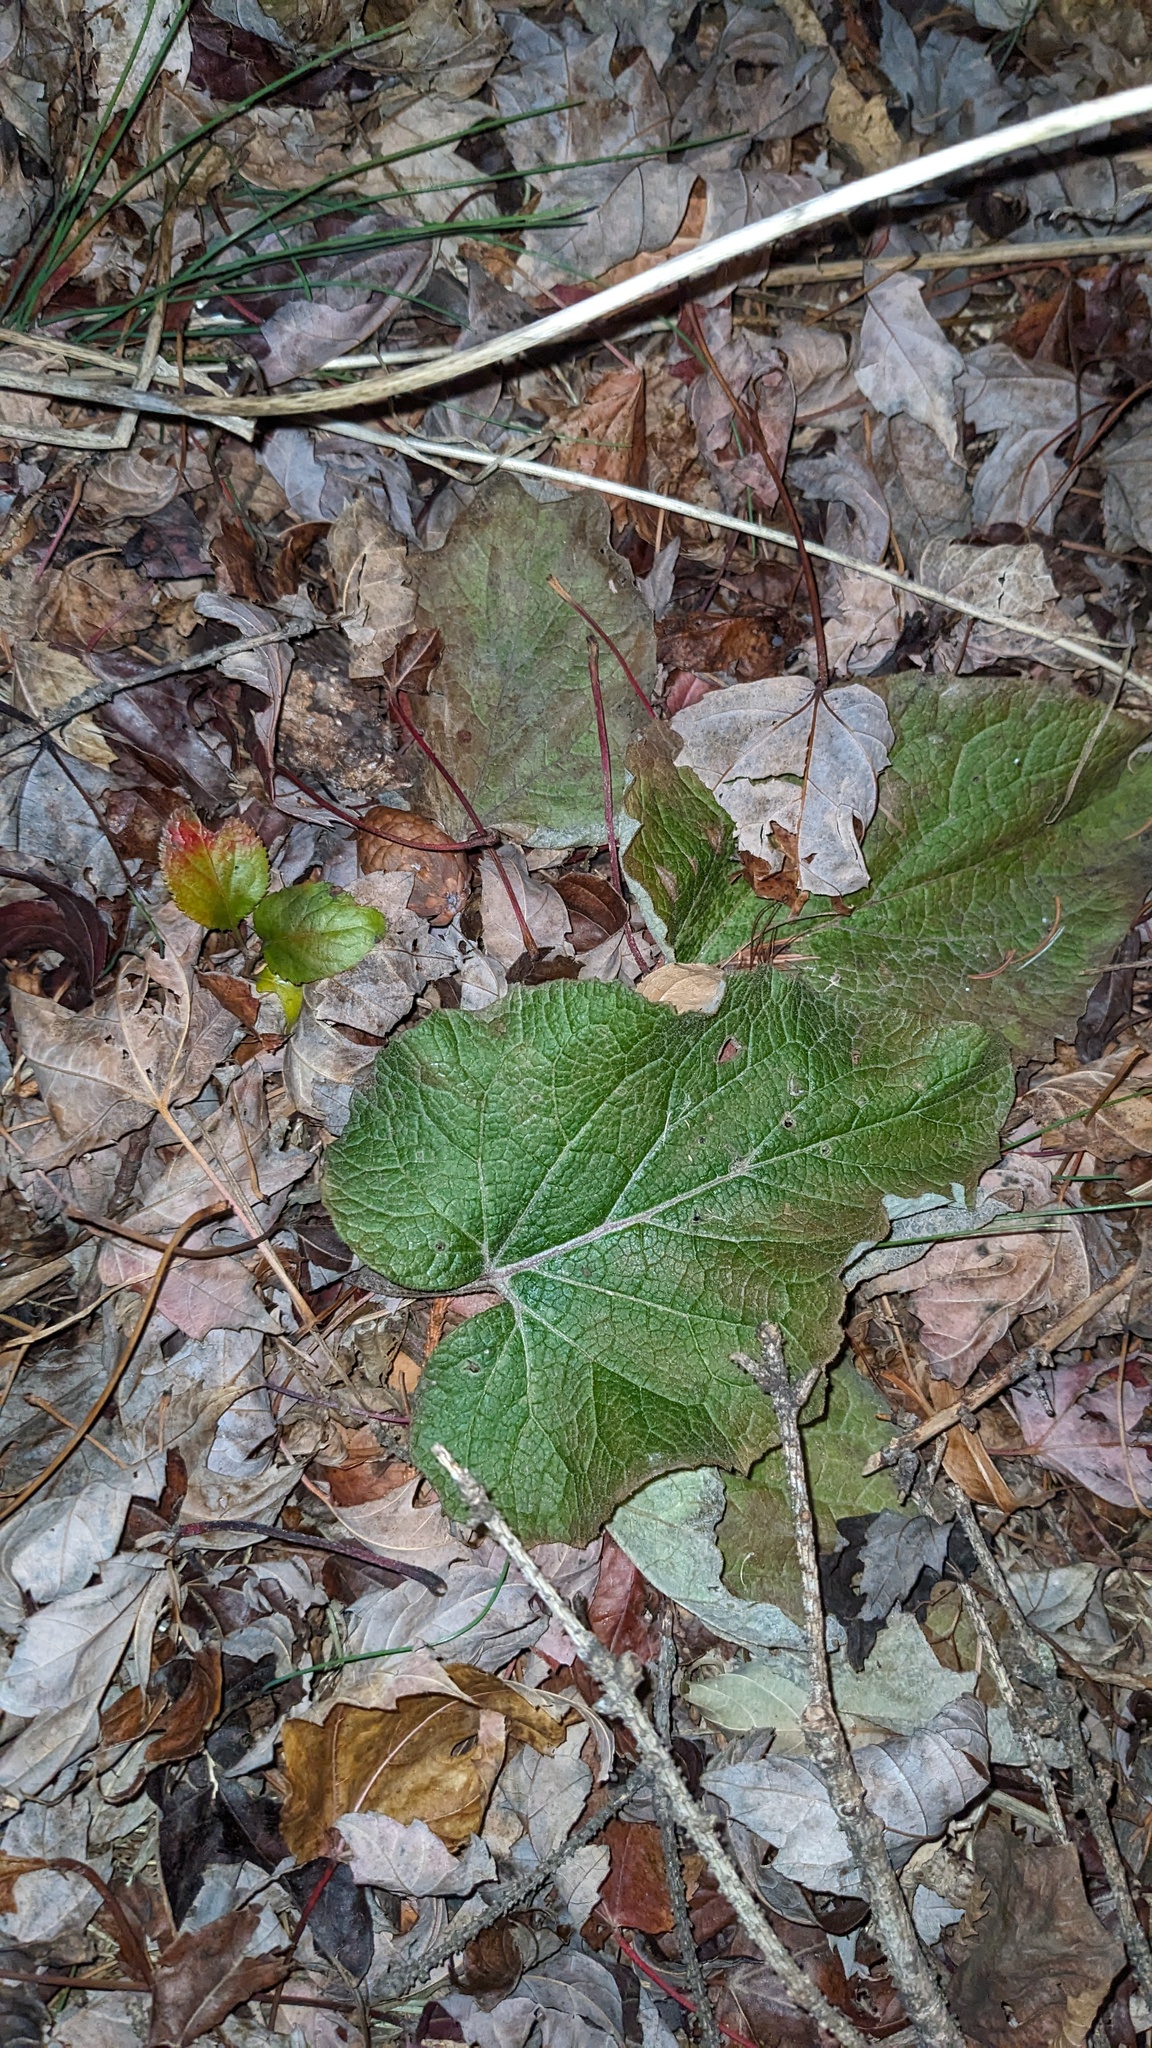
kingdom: Plantae
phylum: Tracheophyta
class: Magnoliopsida
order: Asterales
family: Asteraceae
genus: Arctium
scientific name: Arctium
